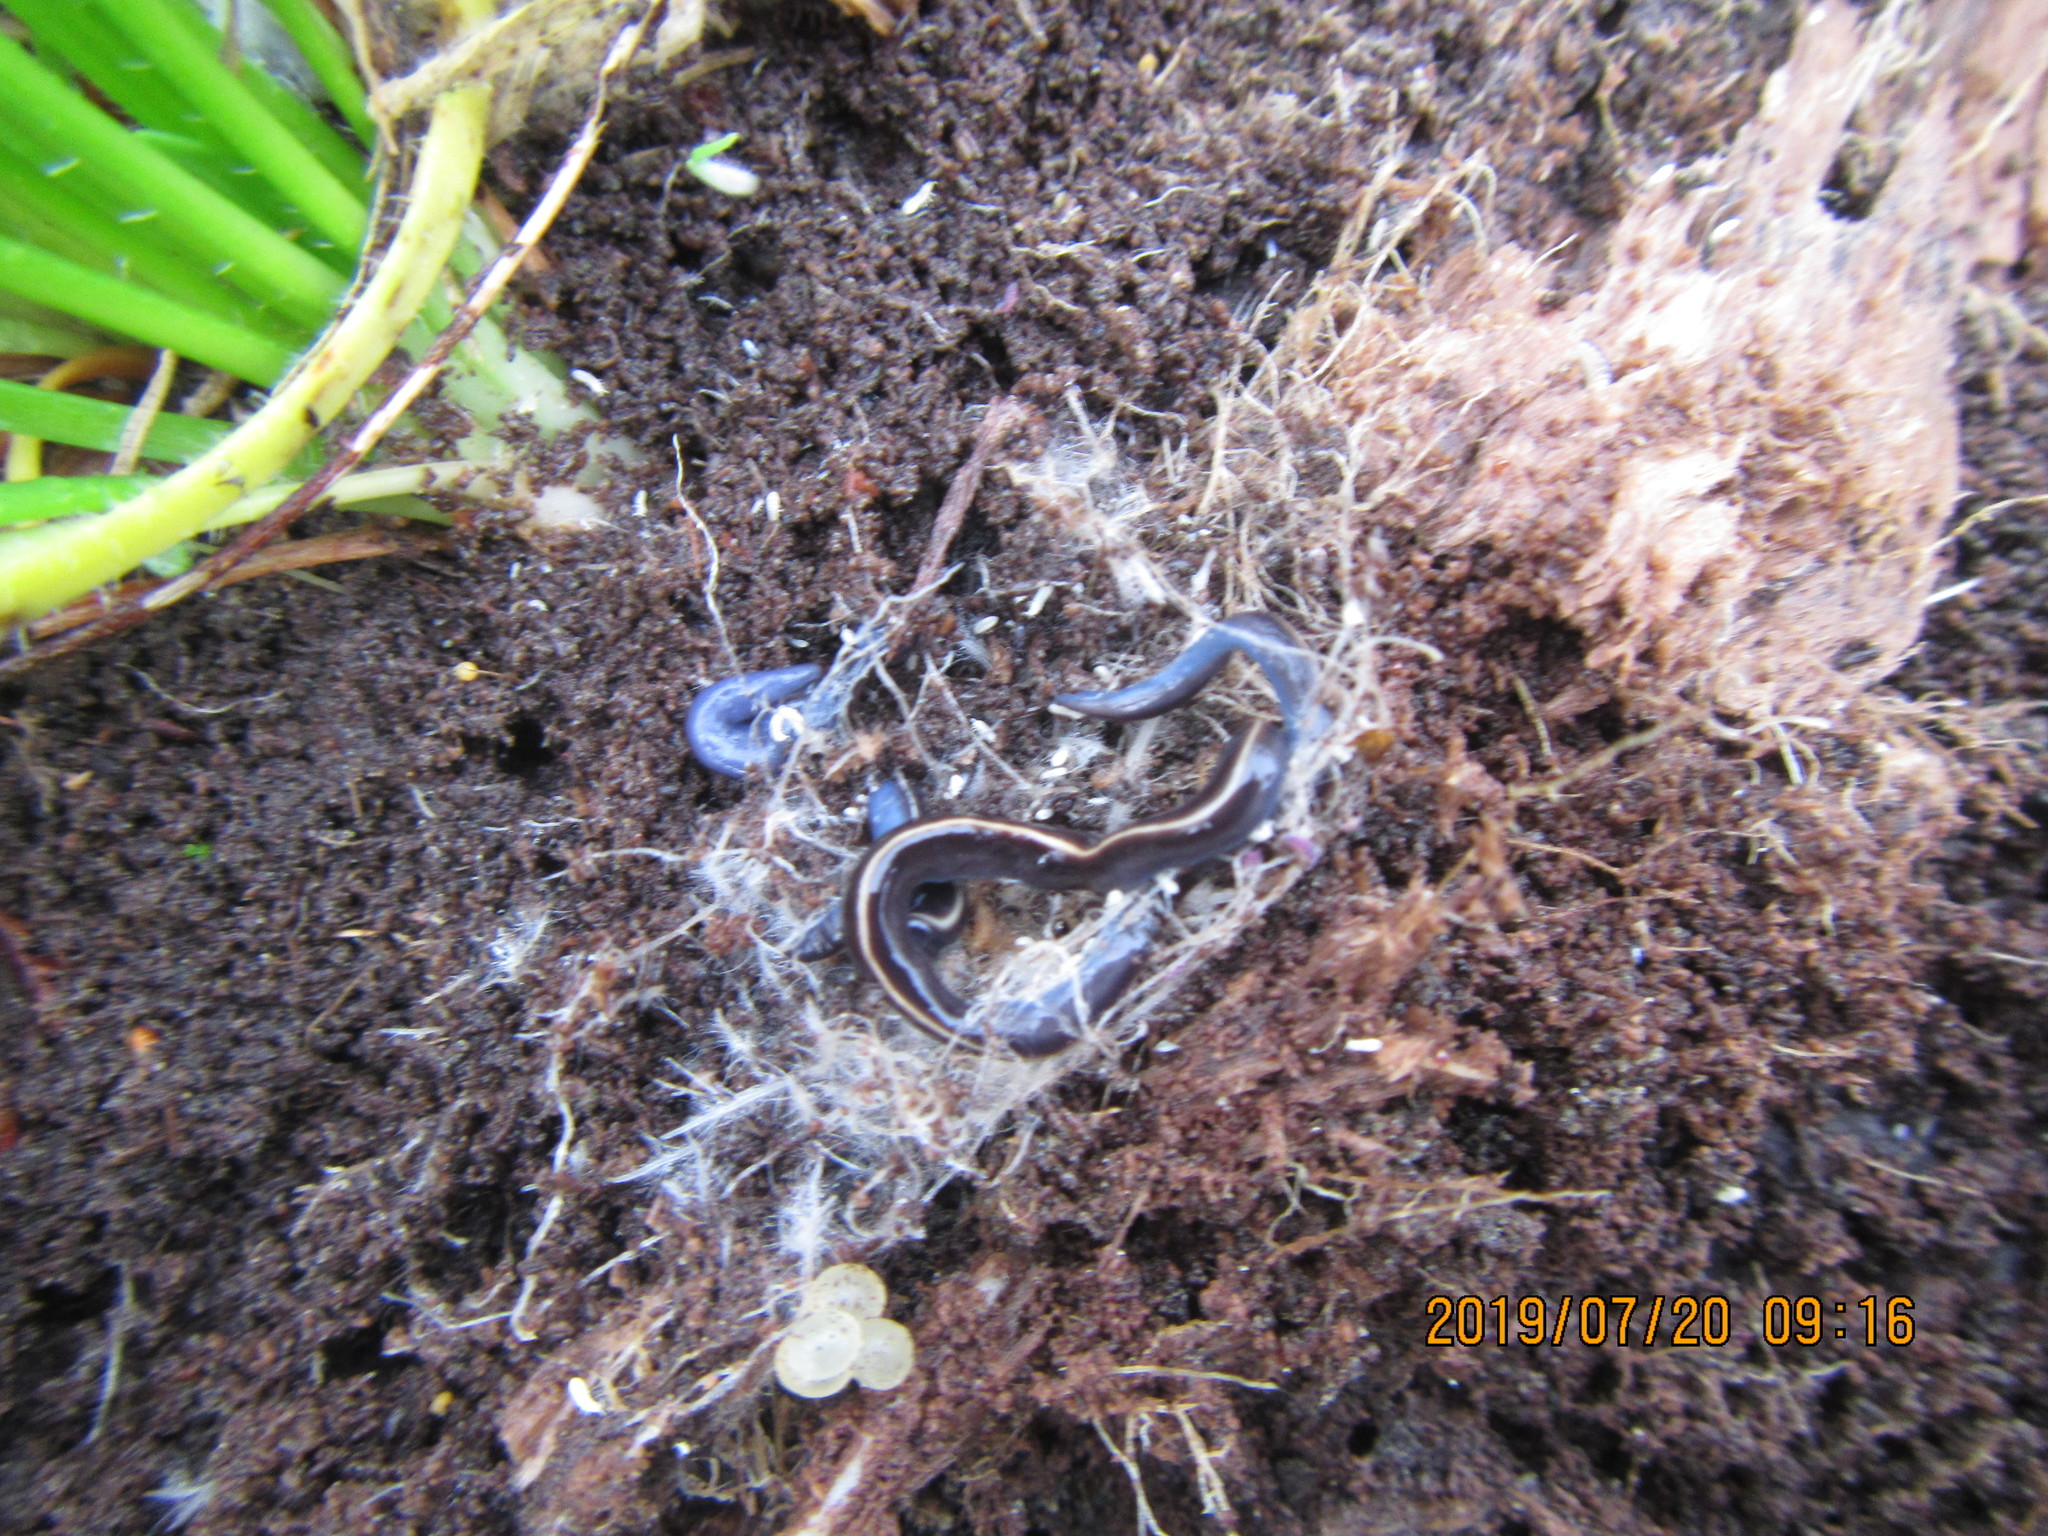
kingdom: Animalia
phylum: Platyhelminthes
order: Tricladida
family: Geoplanidae
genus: Caenoplana
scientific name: Caenoplana coerulea
